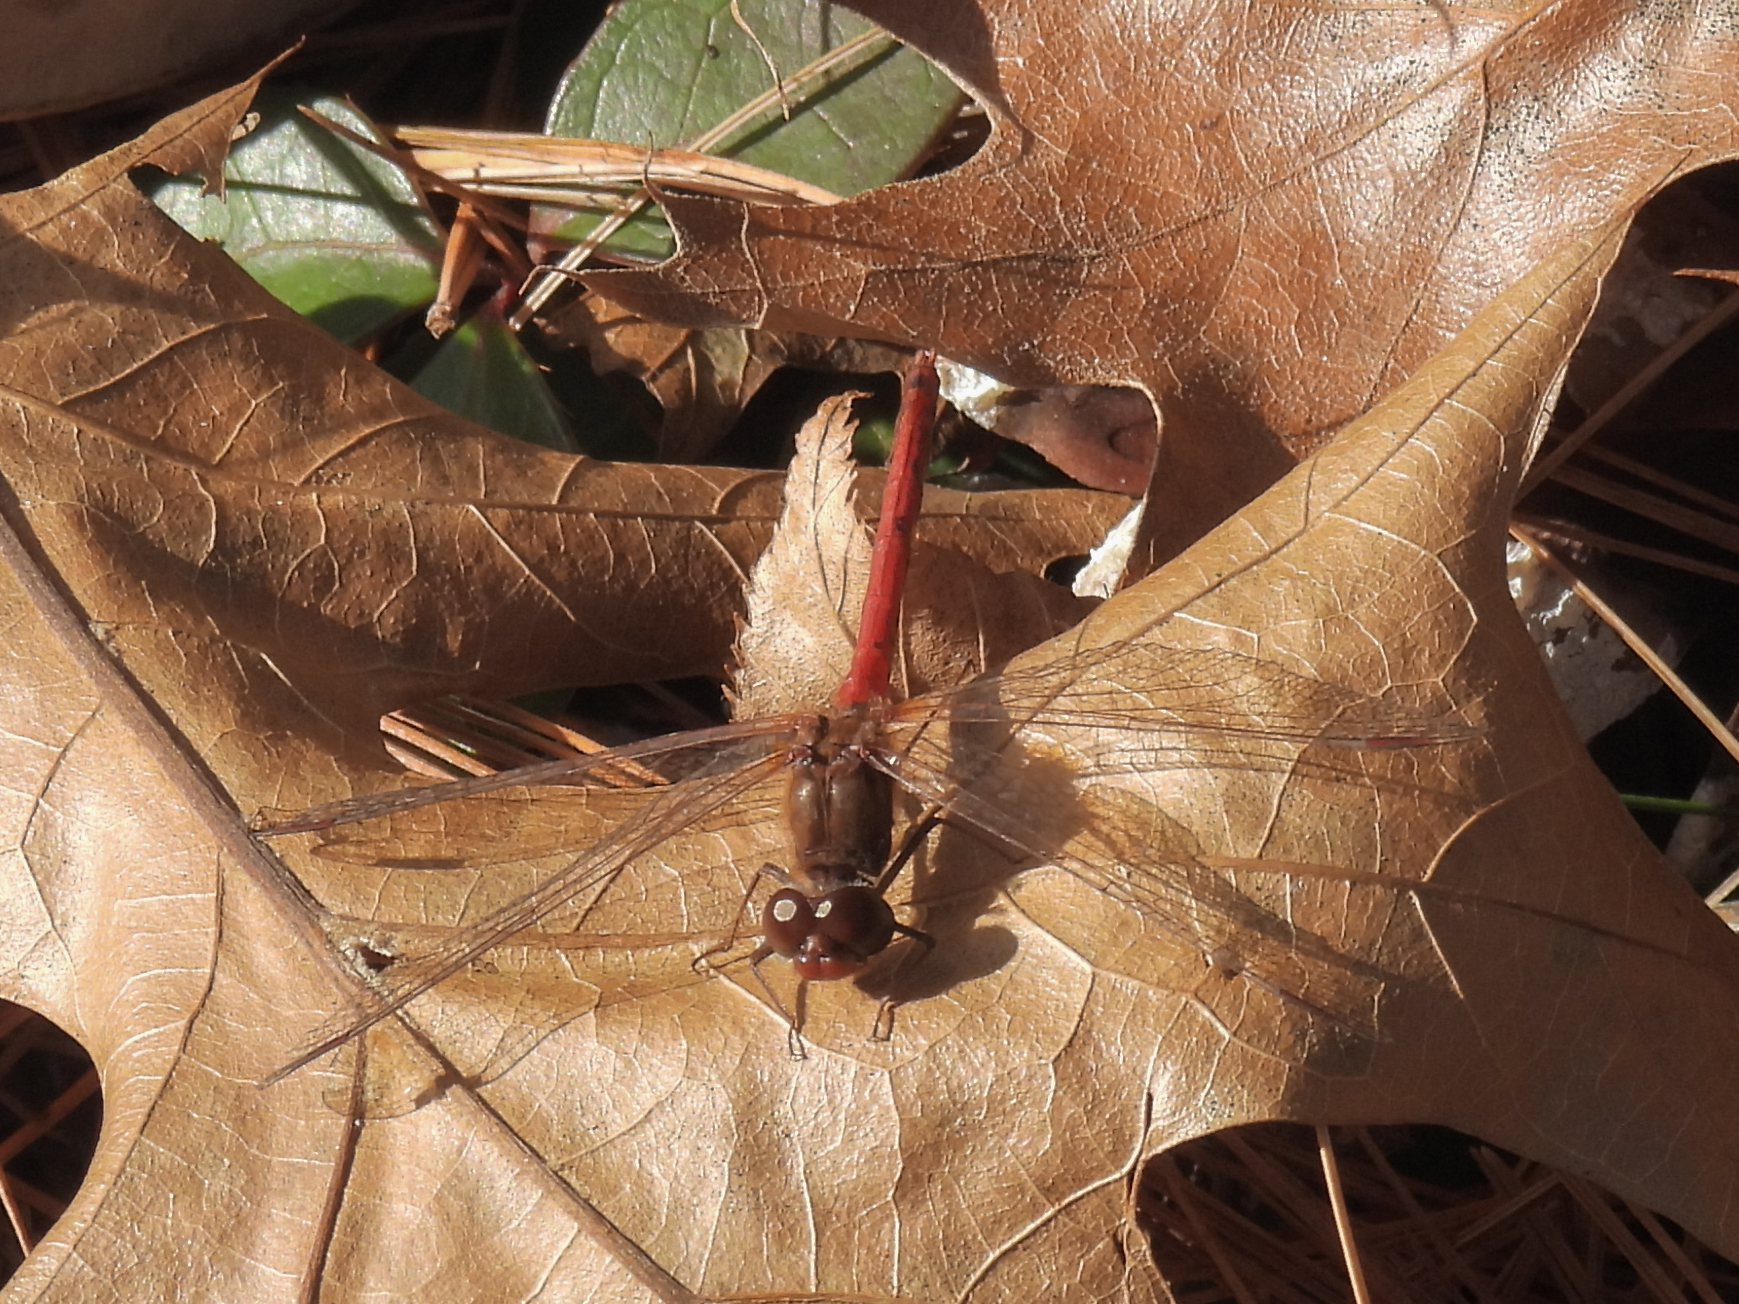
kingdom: Animalia
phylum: Arthropoda
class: Insecta
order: Odonata
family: Libellulidae
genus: Sympetrum
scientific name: Sympetrum vicinum
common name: Autumn meadowhawk
